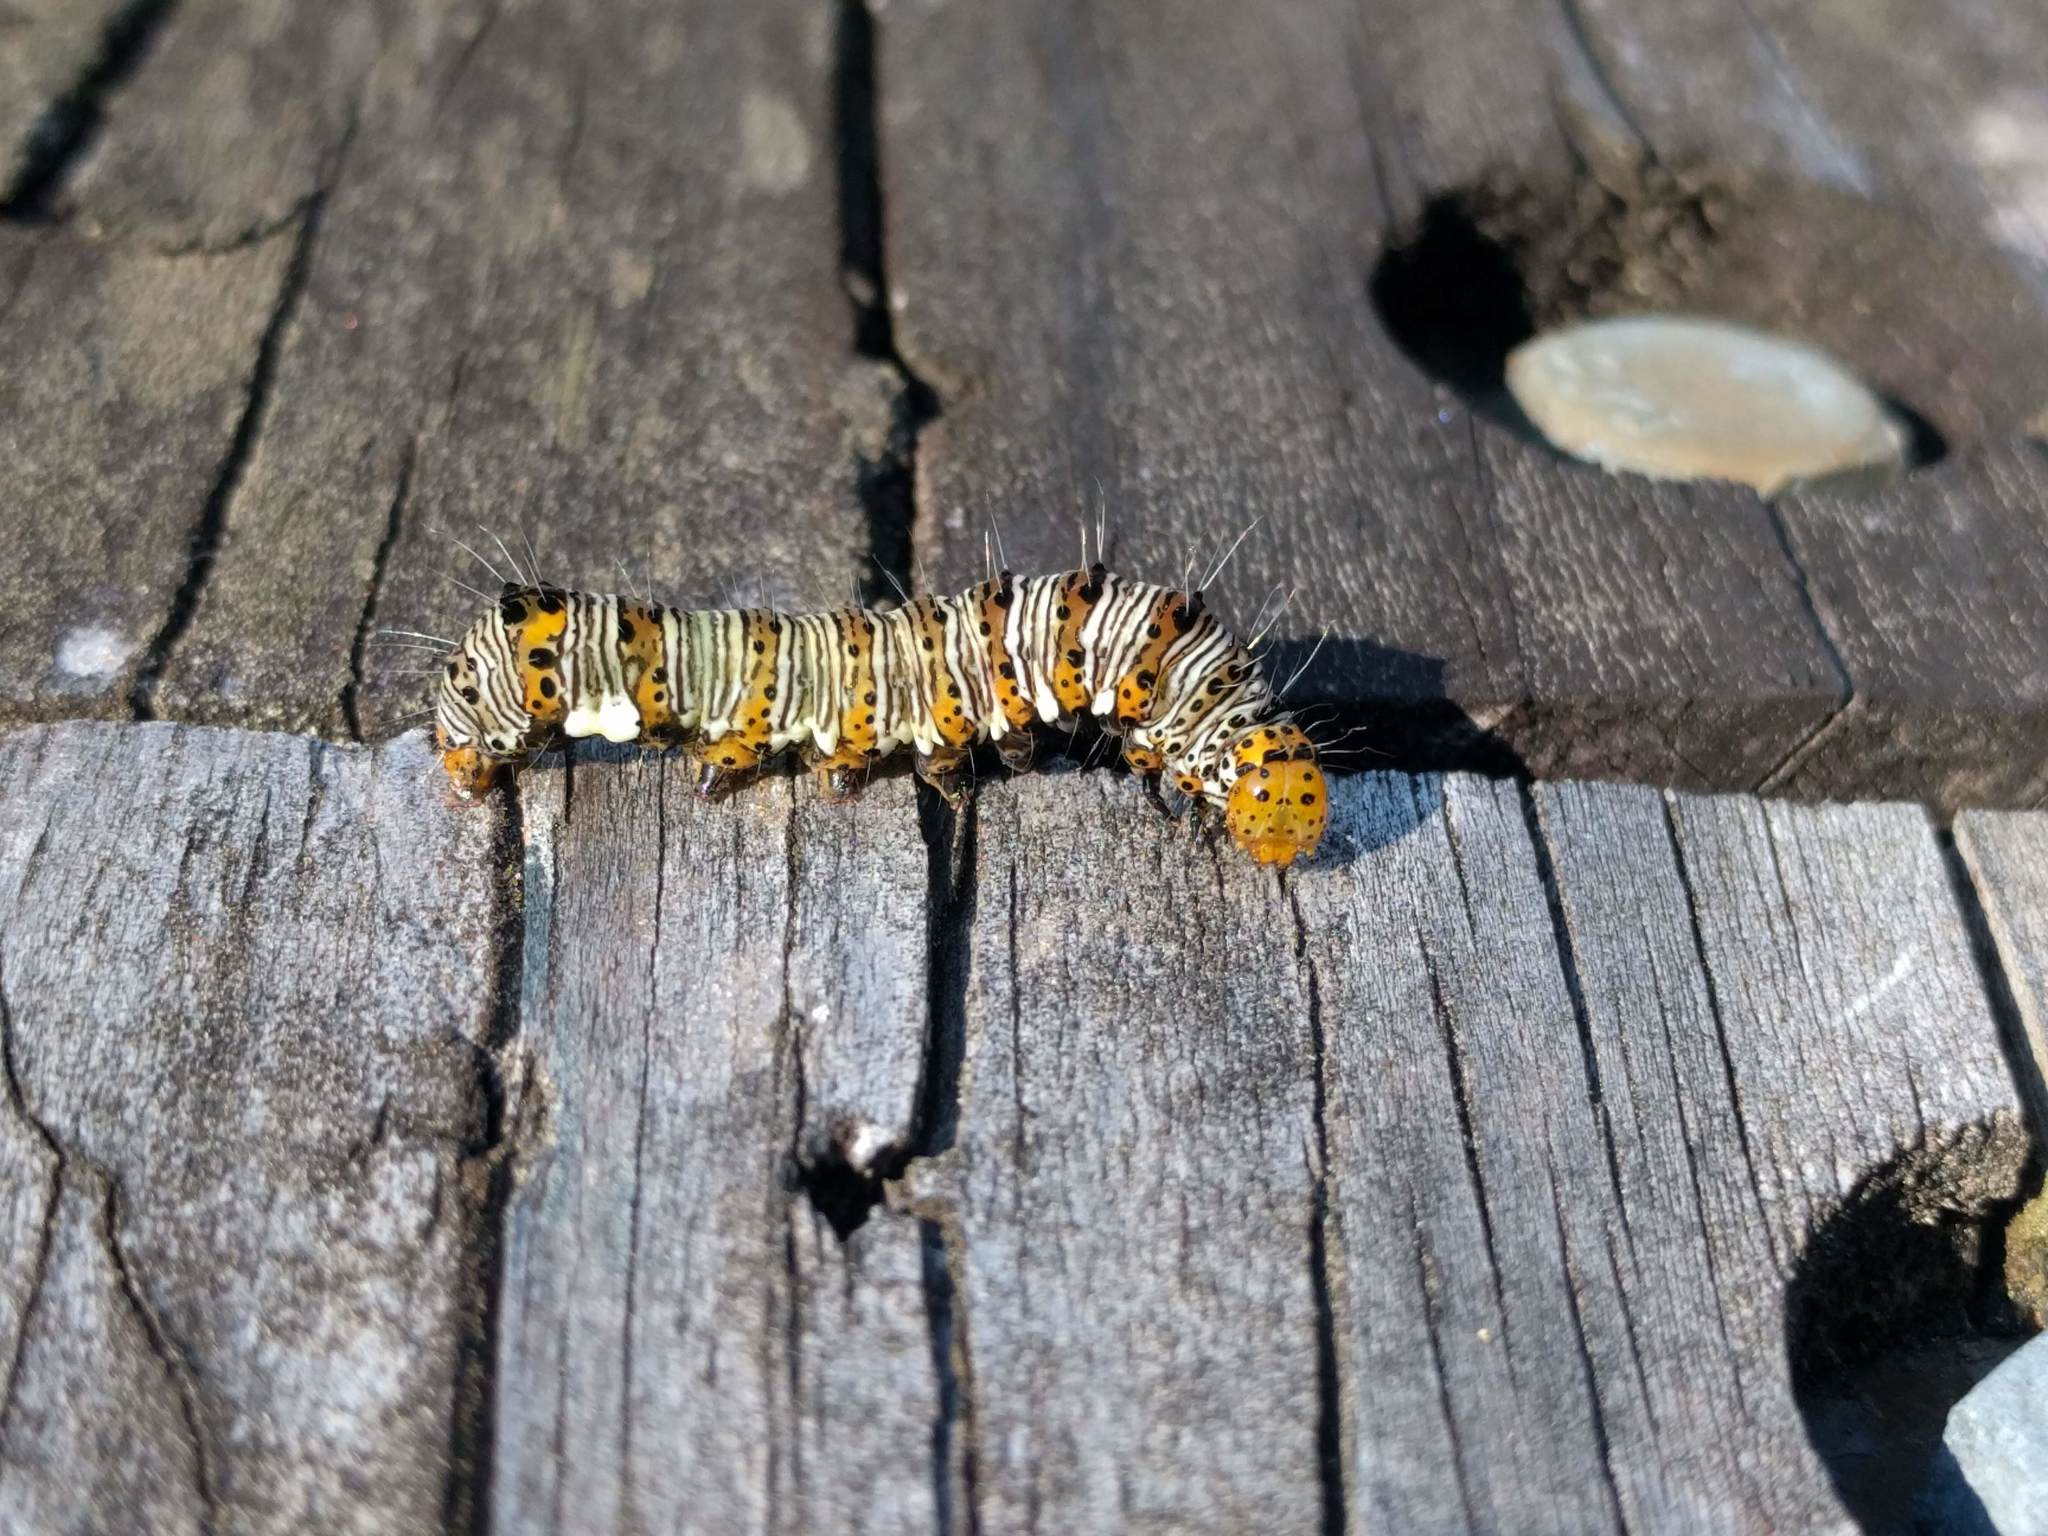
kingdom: Animalia
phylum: Arthropoda
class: Insecta
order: Lepidoptera
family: Noctuidae
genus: Alypia
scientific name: Alypia octomaculata
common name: Eight-spotted forester
